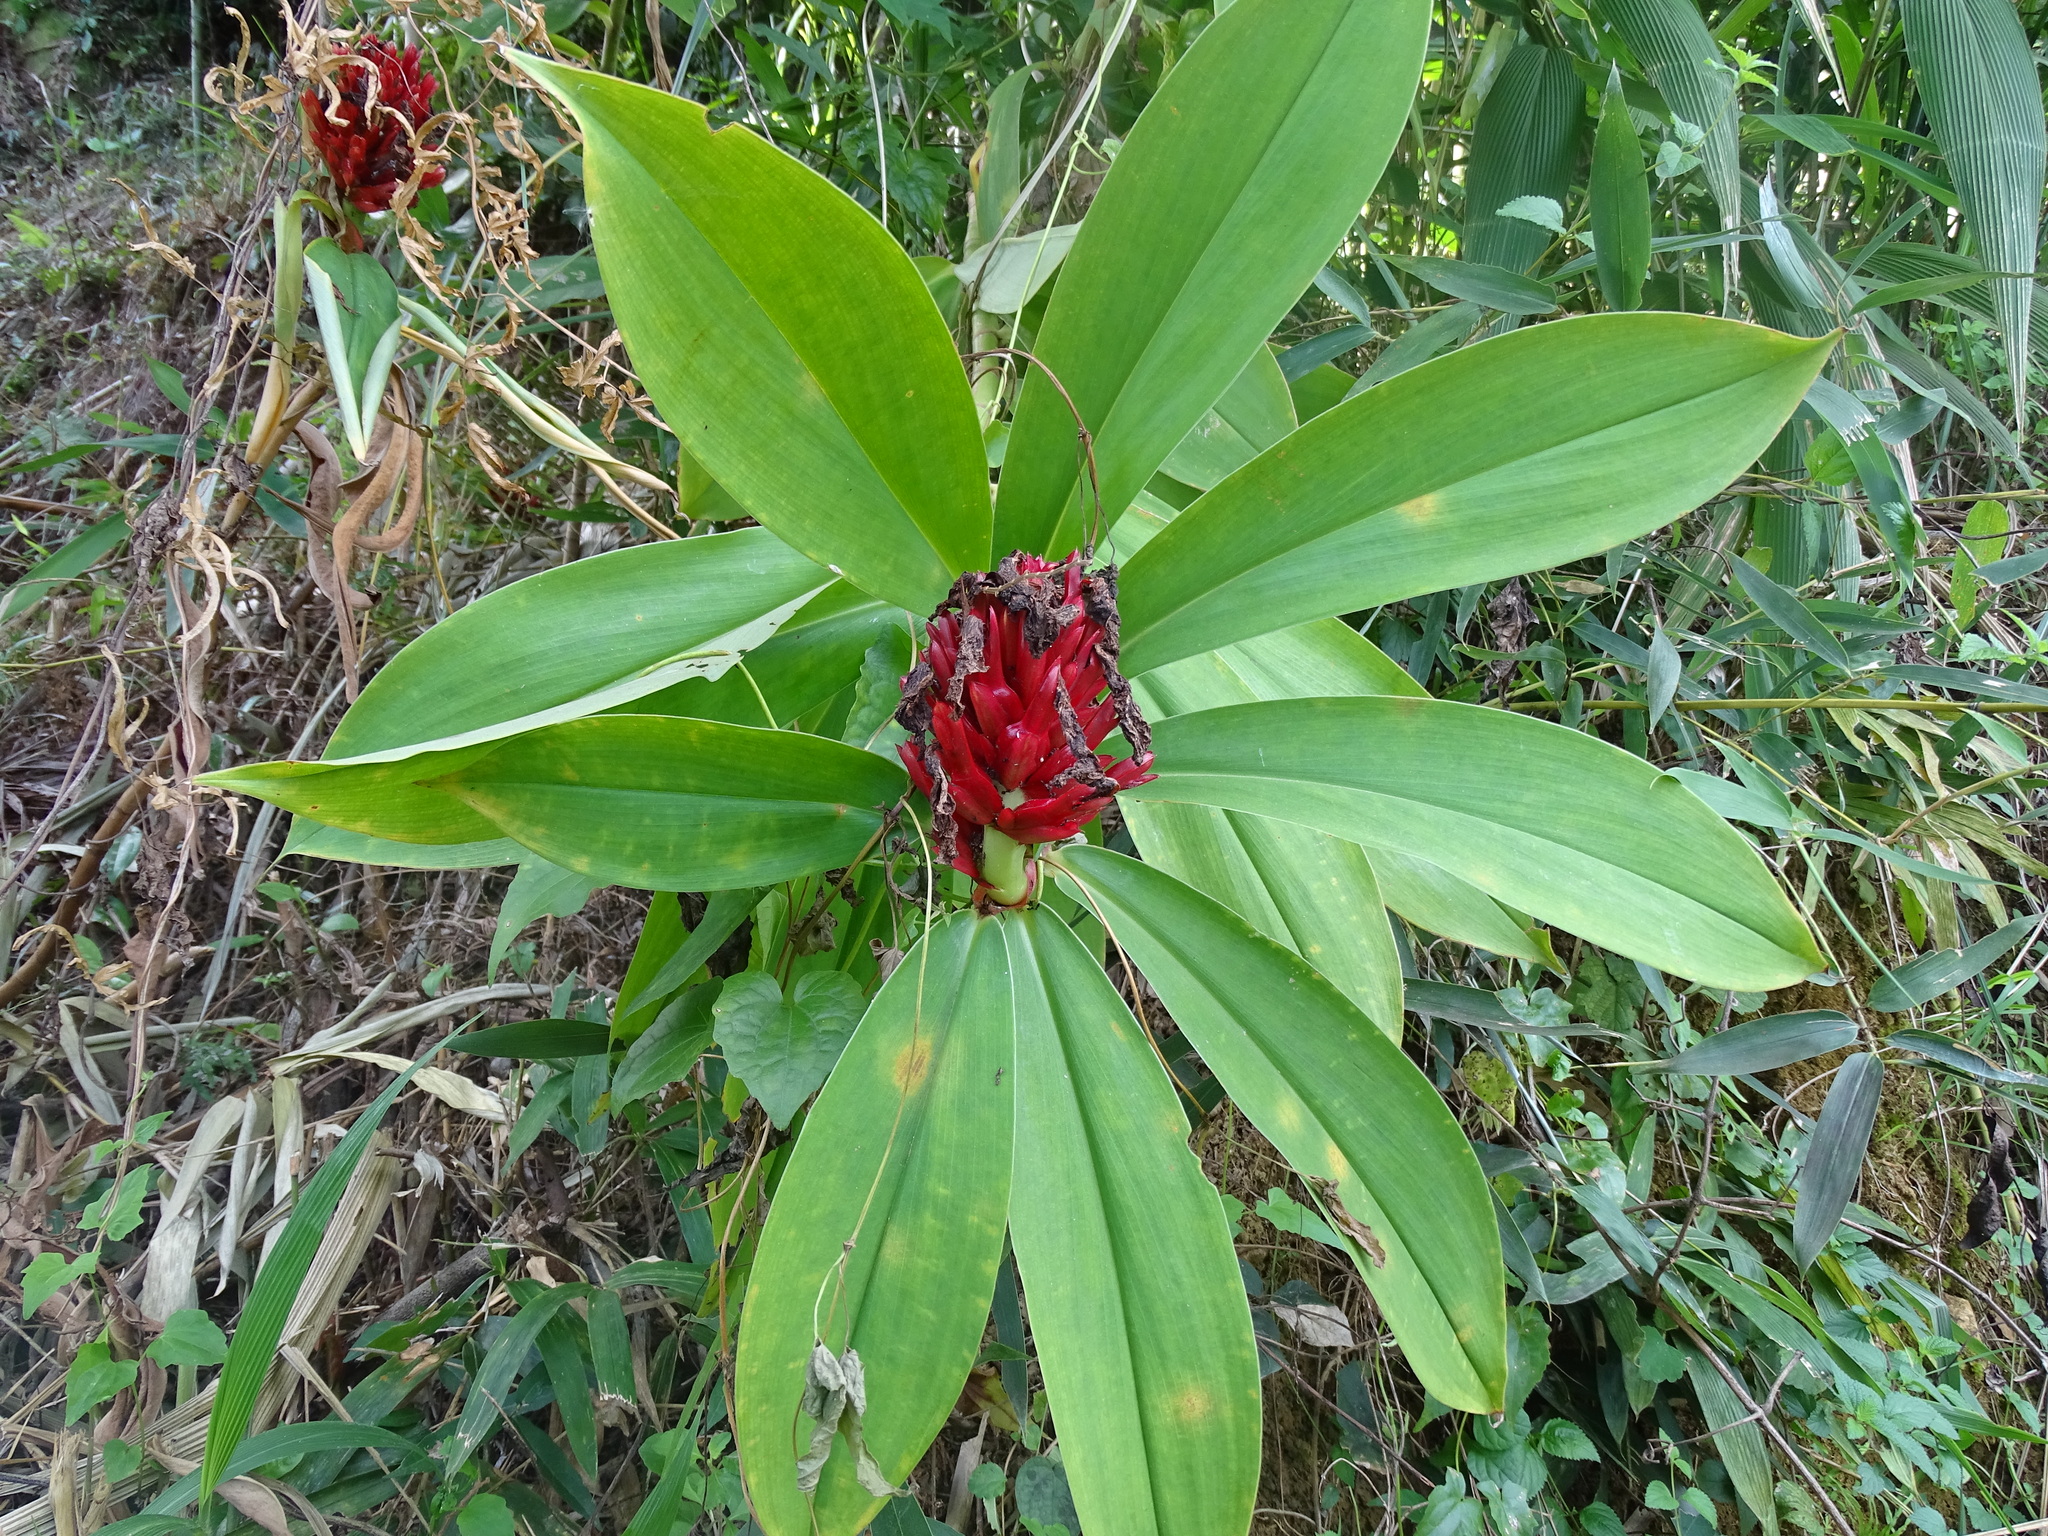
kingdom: Plantae
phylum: Tracheophyta
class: Liliopsida
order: Zingiberales
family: Costaceae
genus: Hellenia
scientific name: Hellenia speciosa
